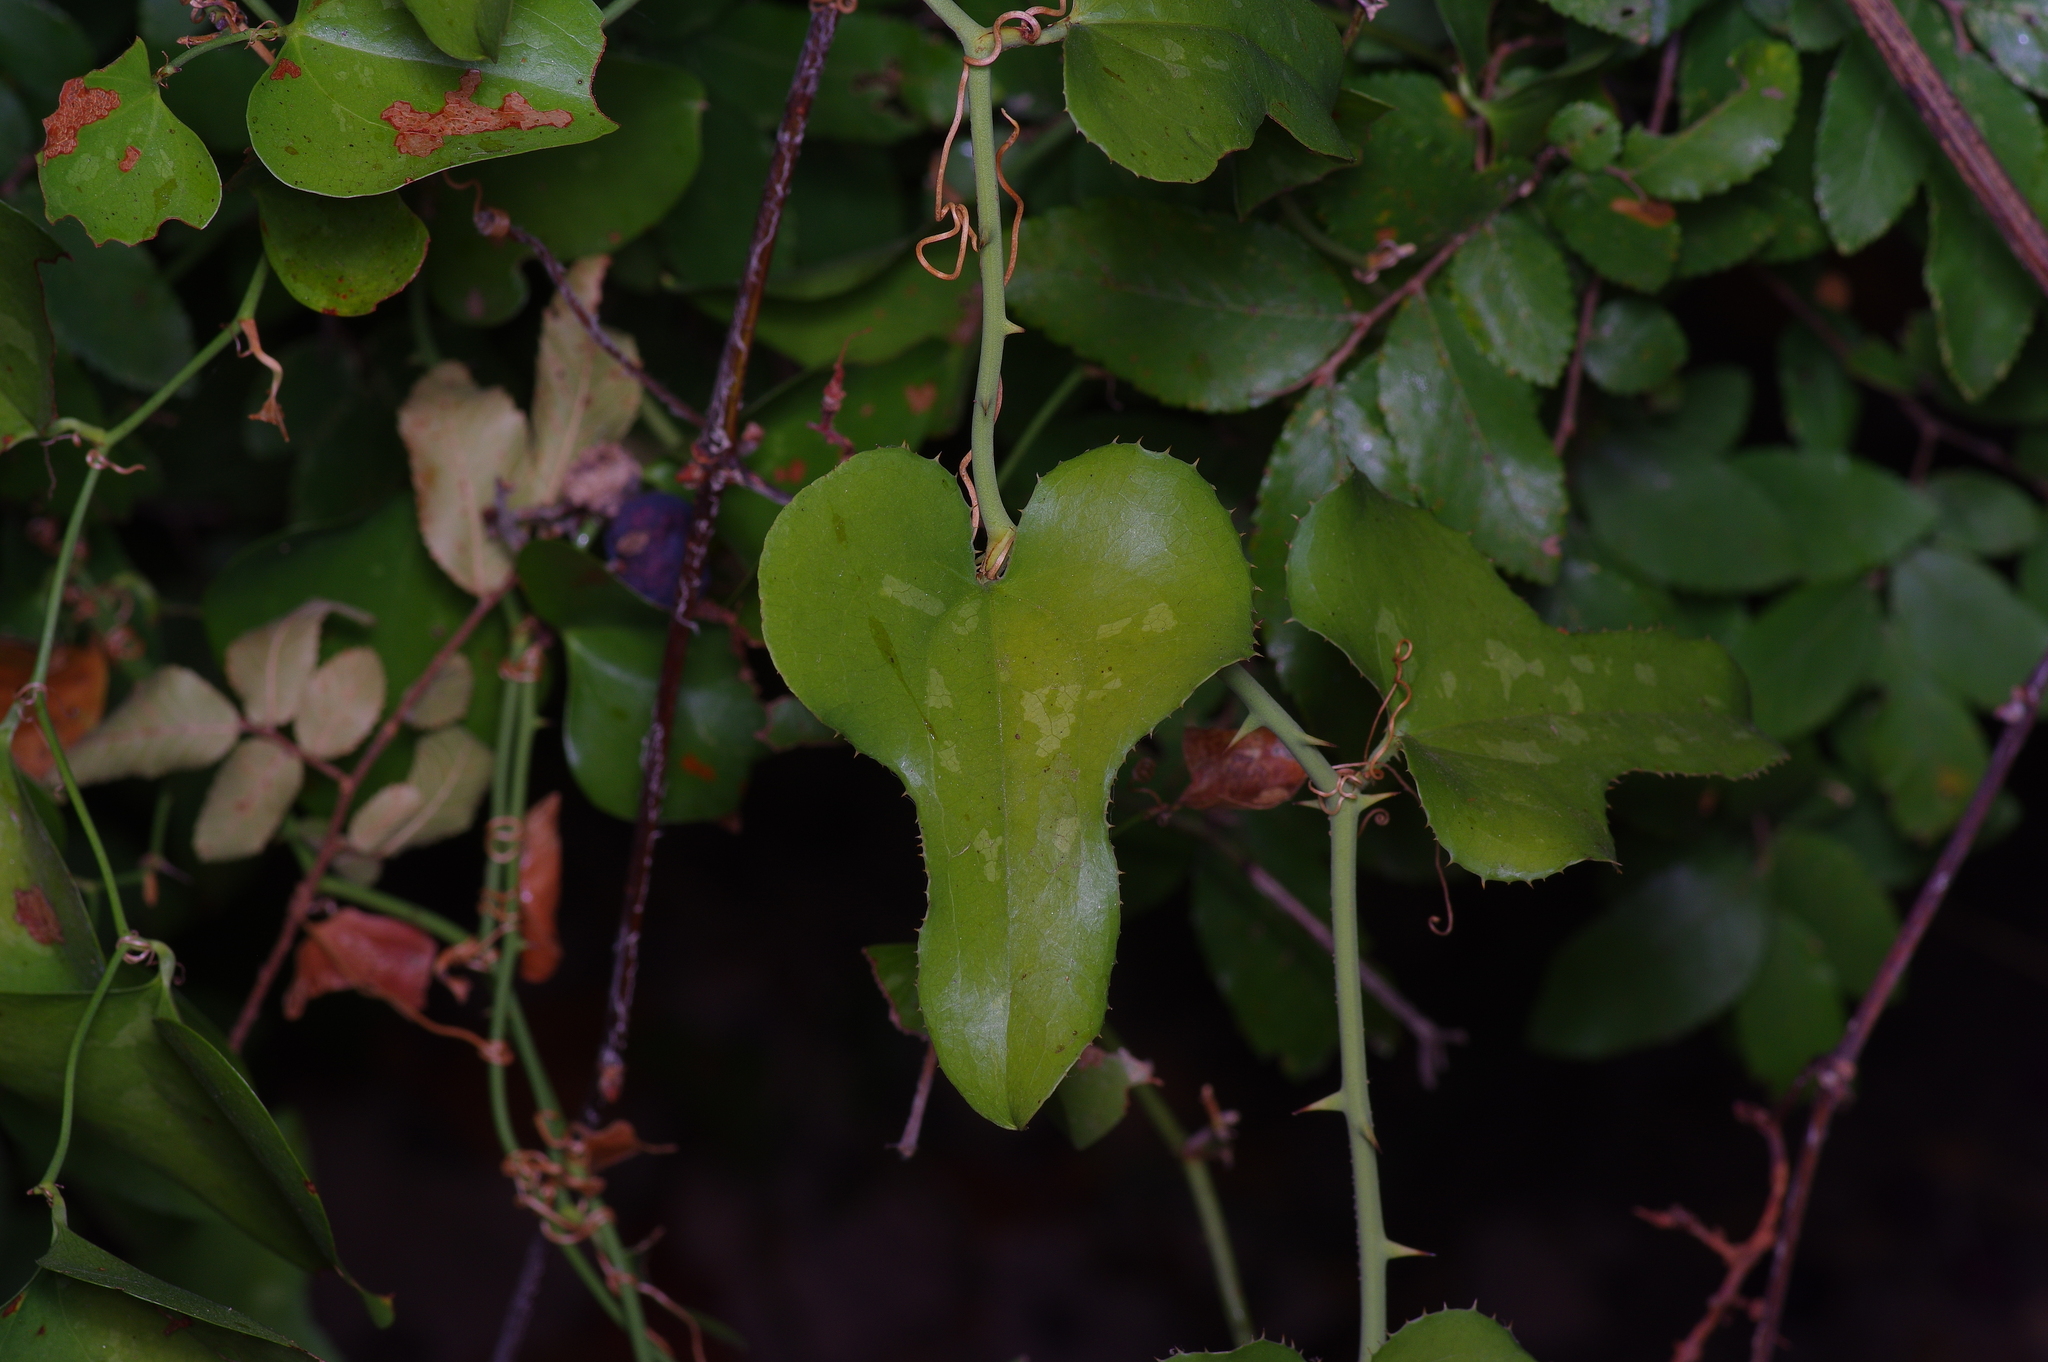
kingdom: Plantae
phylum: Tracheophyta
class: Liliopsida
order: Liliales
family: Smilacaceae
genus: Smilax
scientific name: Smilax bona-nox
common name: Catbrier
